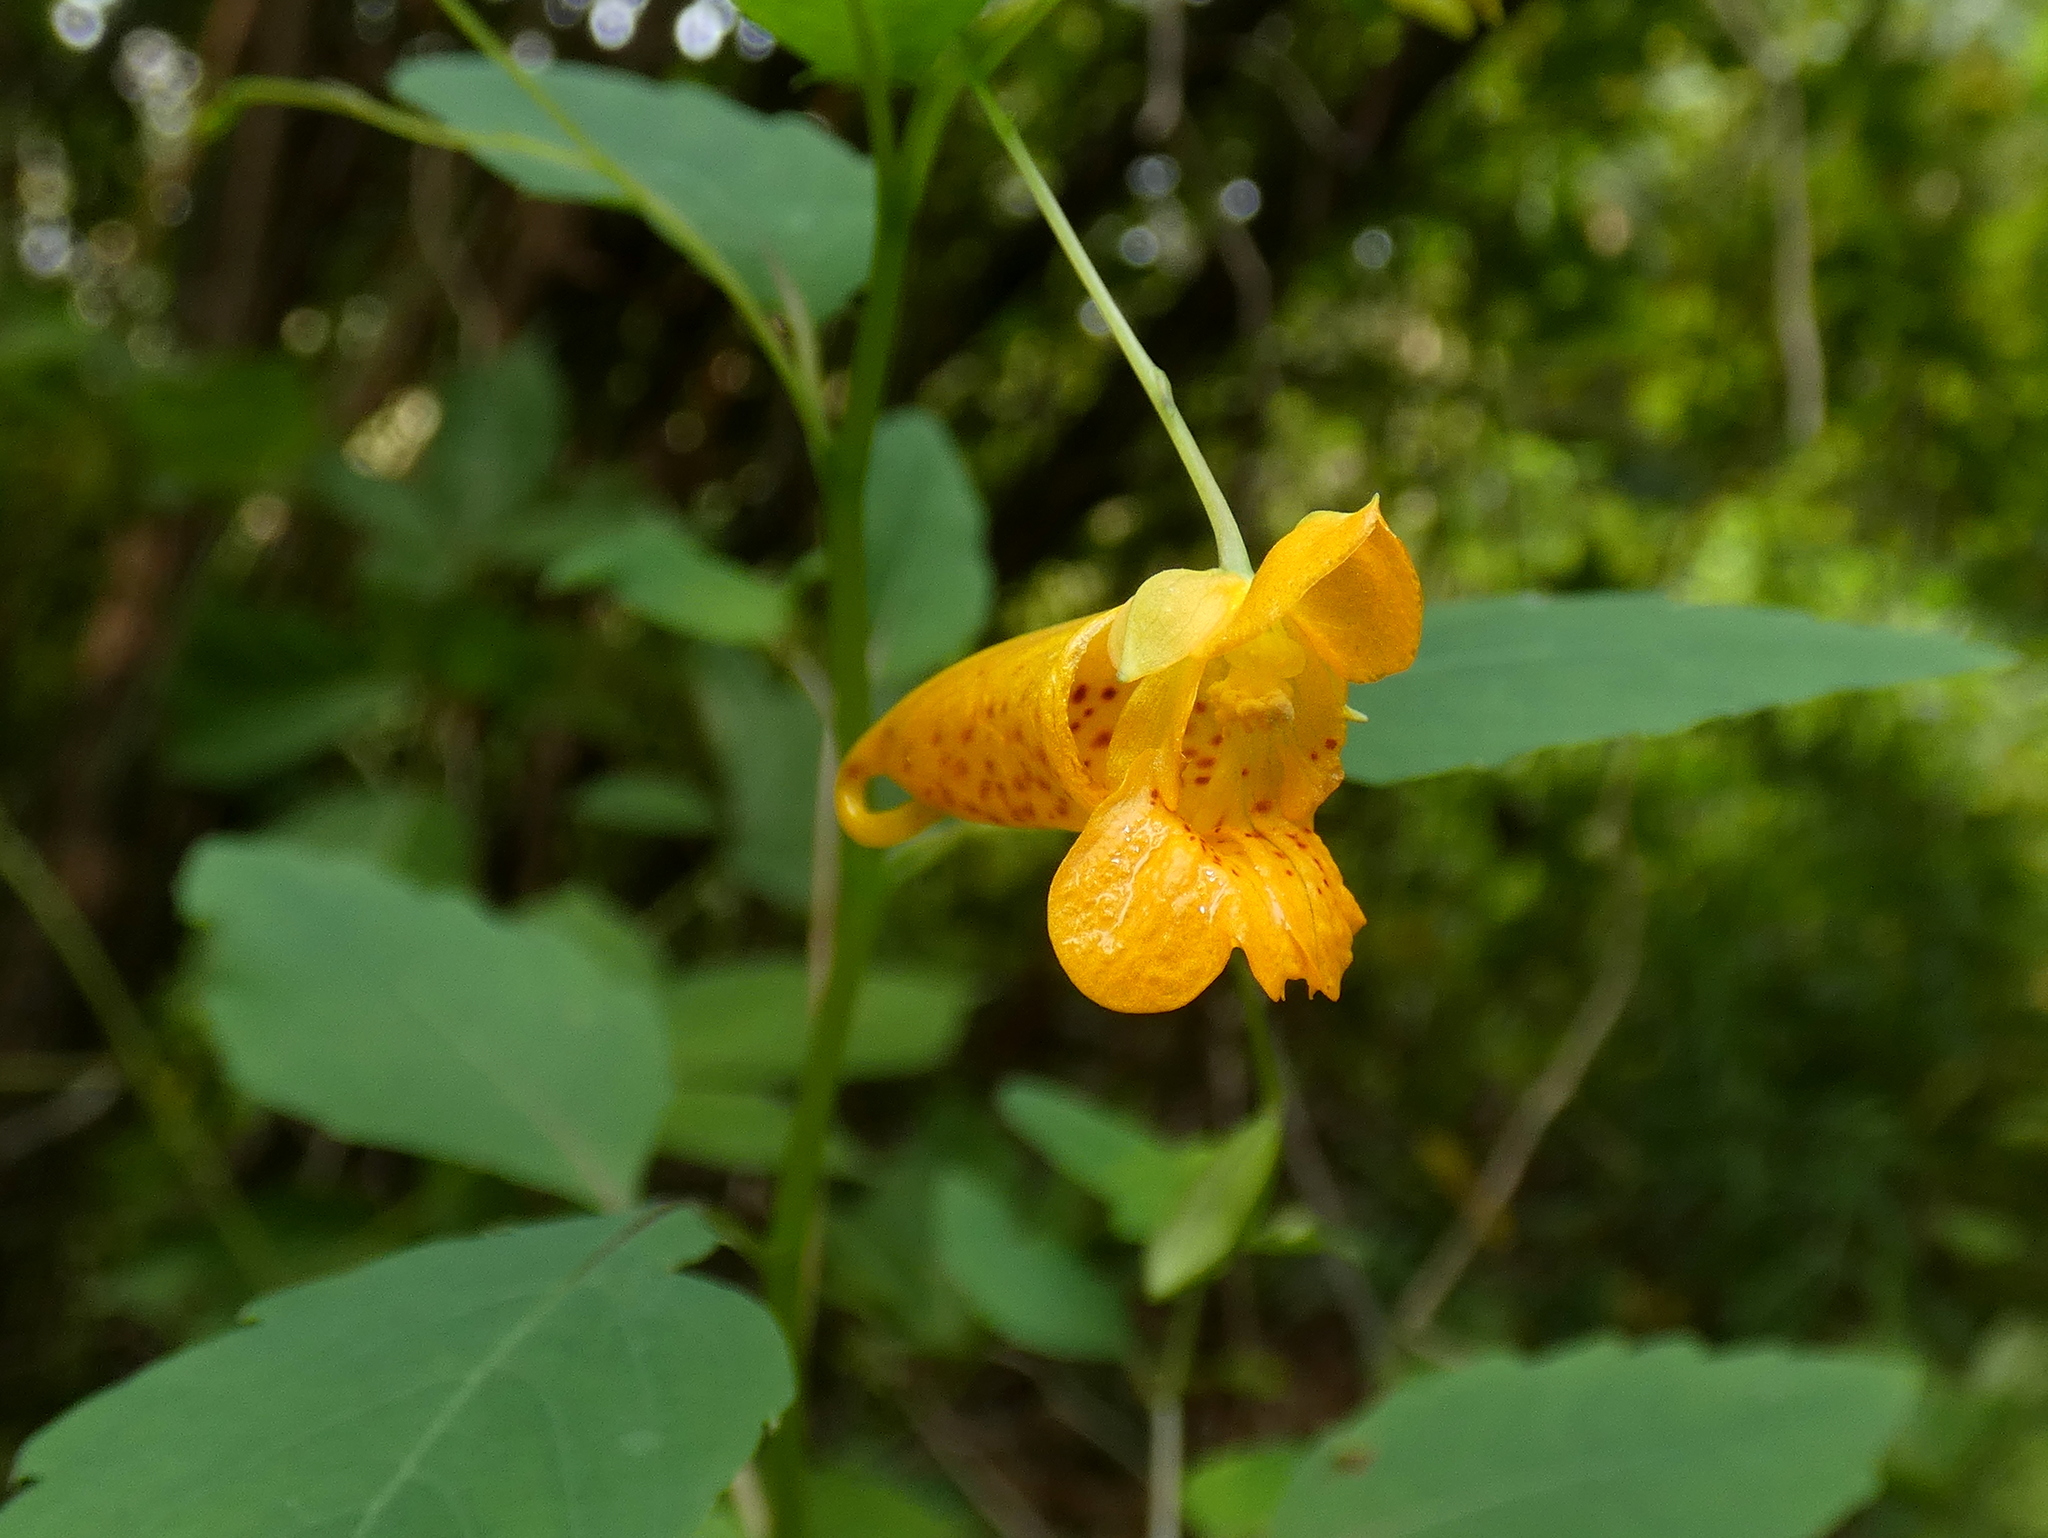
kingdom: Plantae
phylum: Tracheophyta
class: Magnoliopsida
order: Ericales
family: Balsaminaceae
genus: Impatiens
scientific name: Impatiens capensis
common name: Orange balsam
